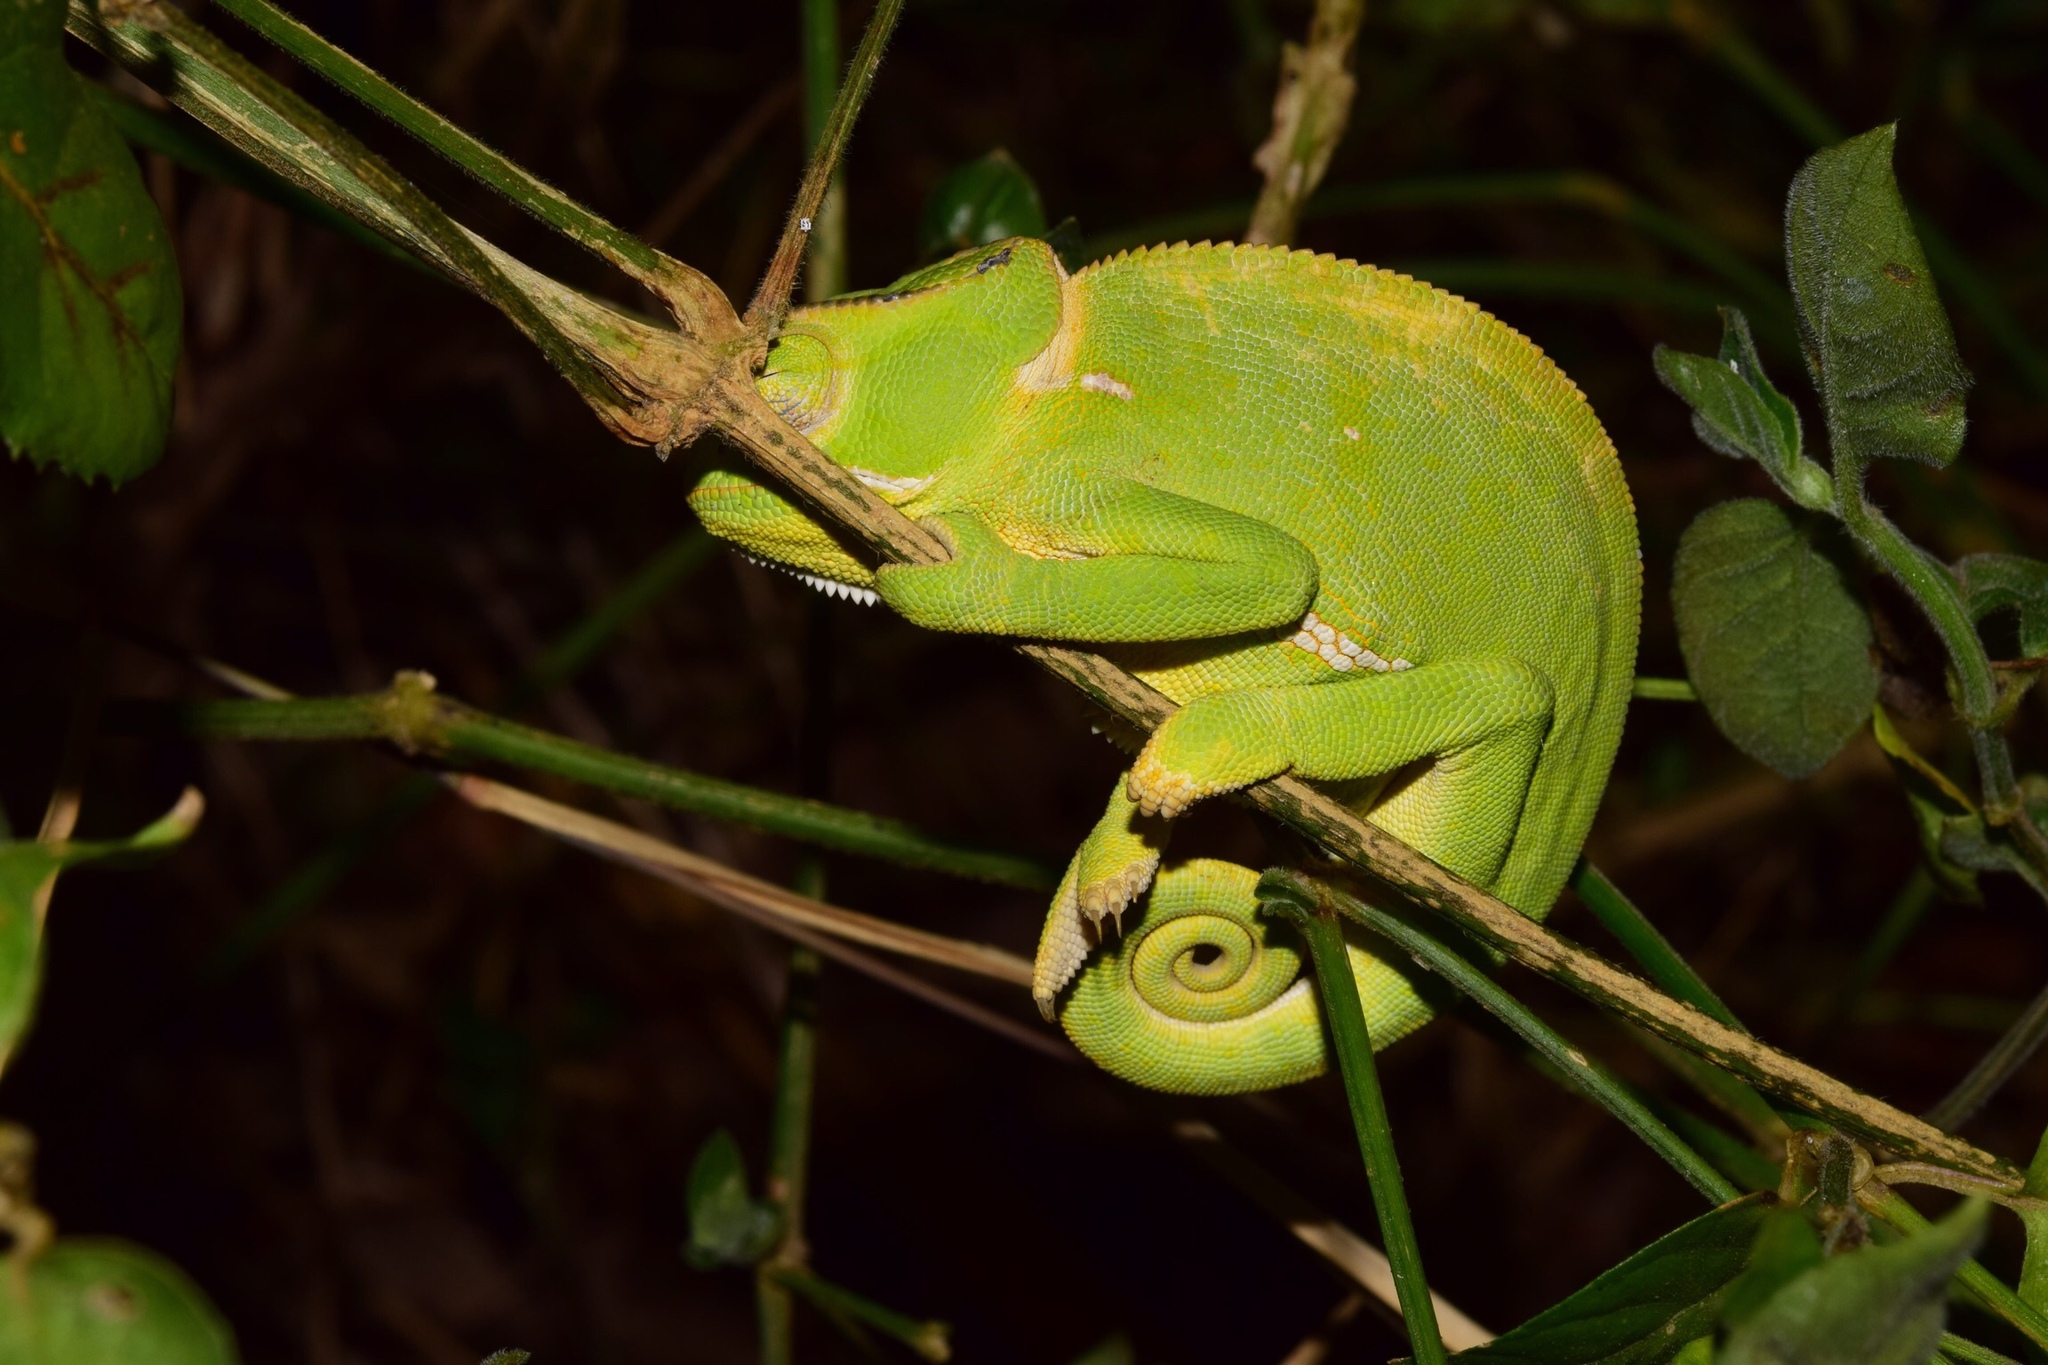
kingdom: Animalia
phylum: Chordata
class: Squamata
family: Chamaeleonidae
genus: Chamaeleo
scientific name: Chamaeleo dilepis
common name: Flapneck chameleon
